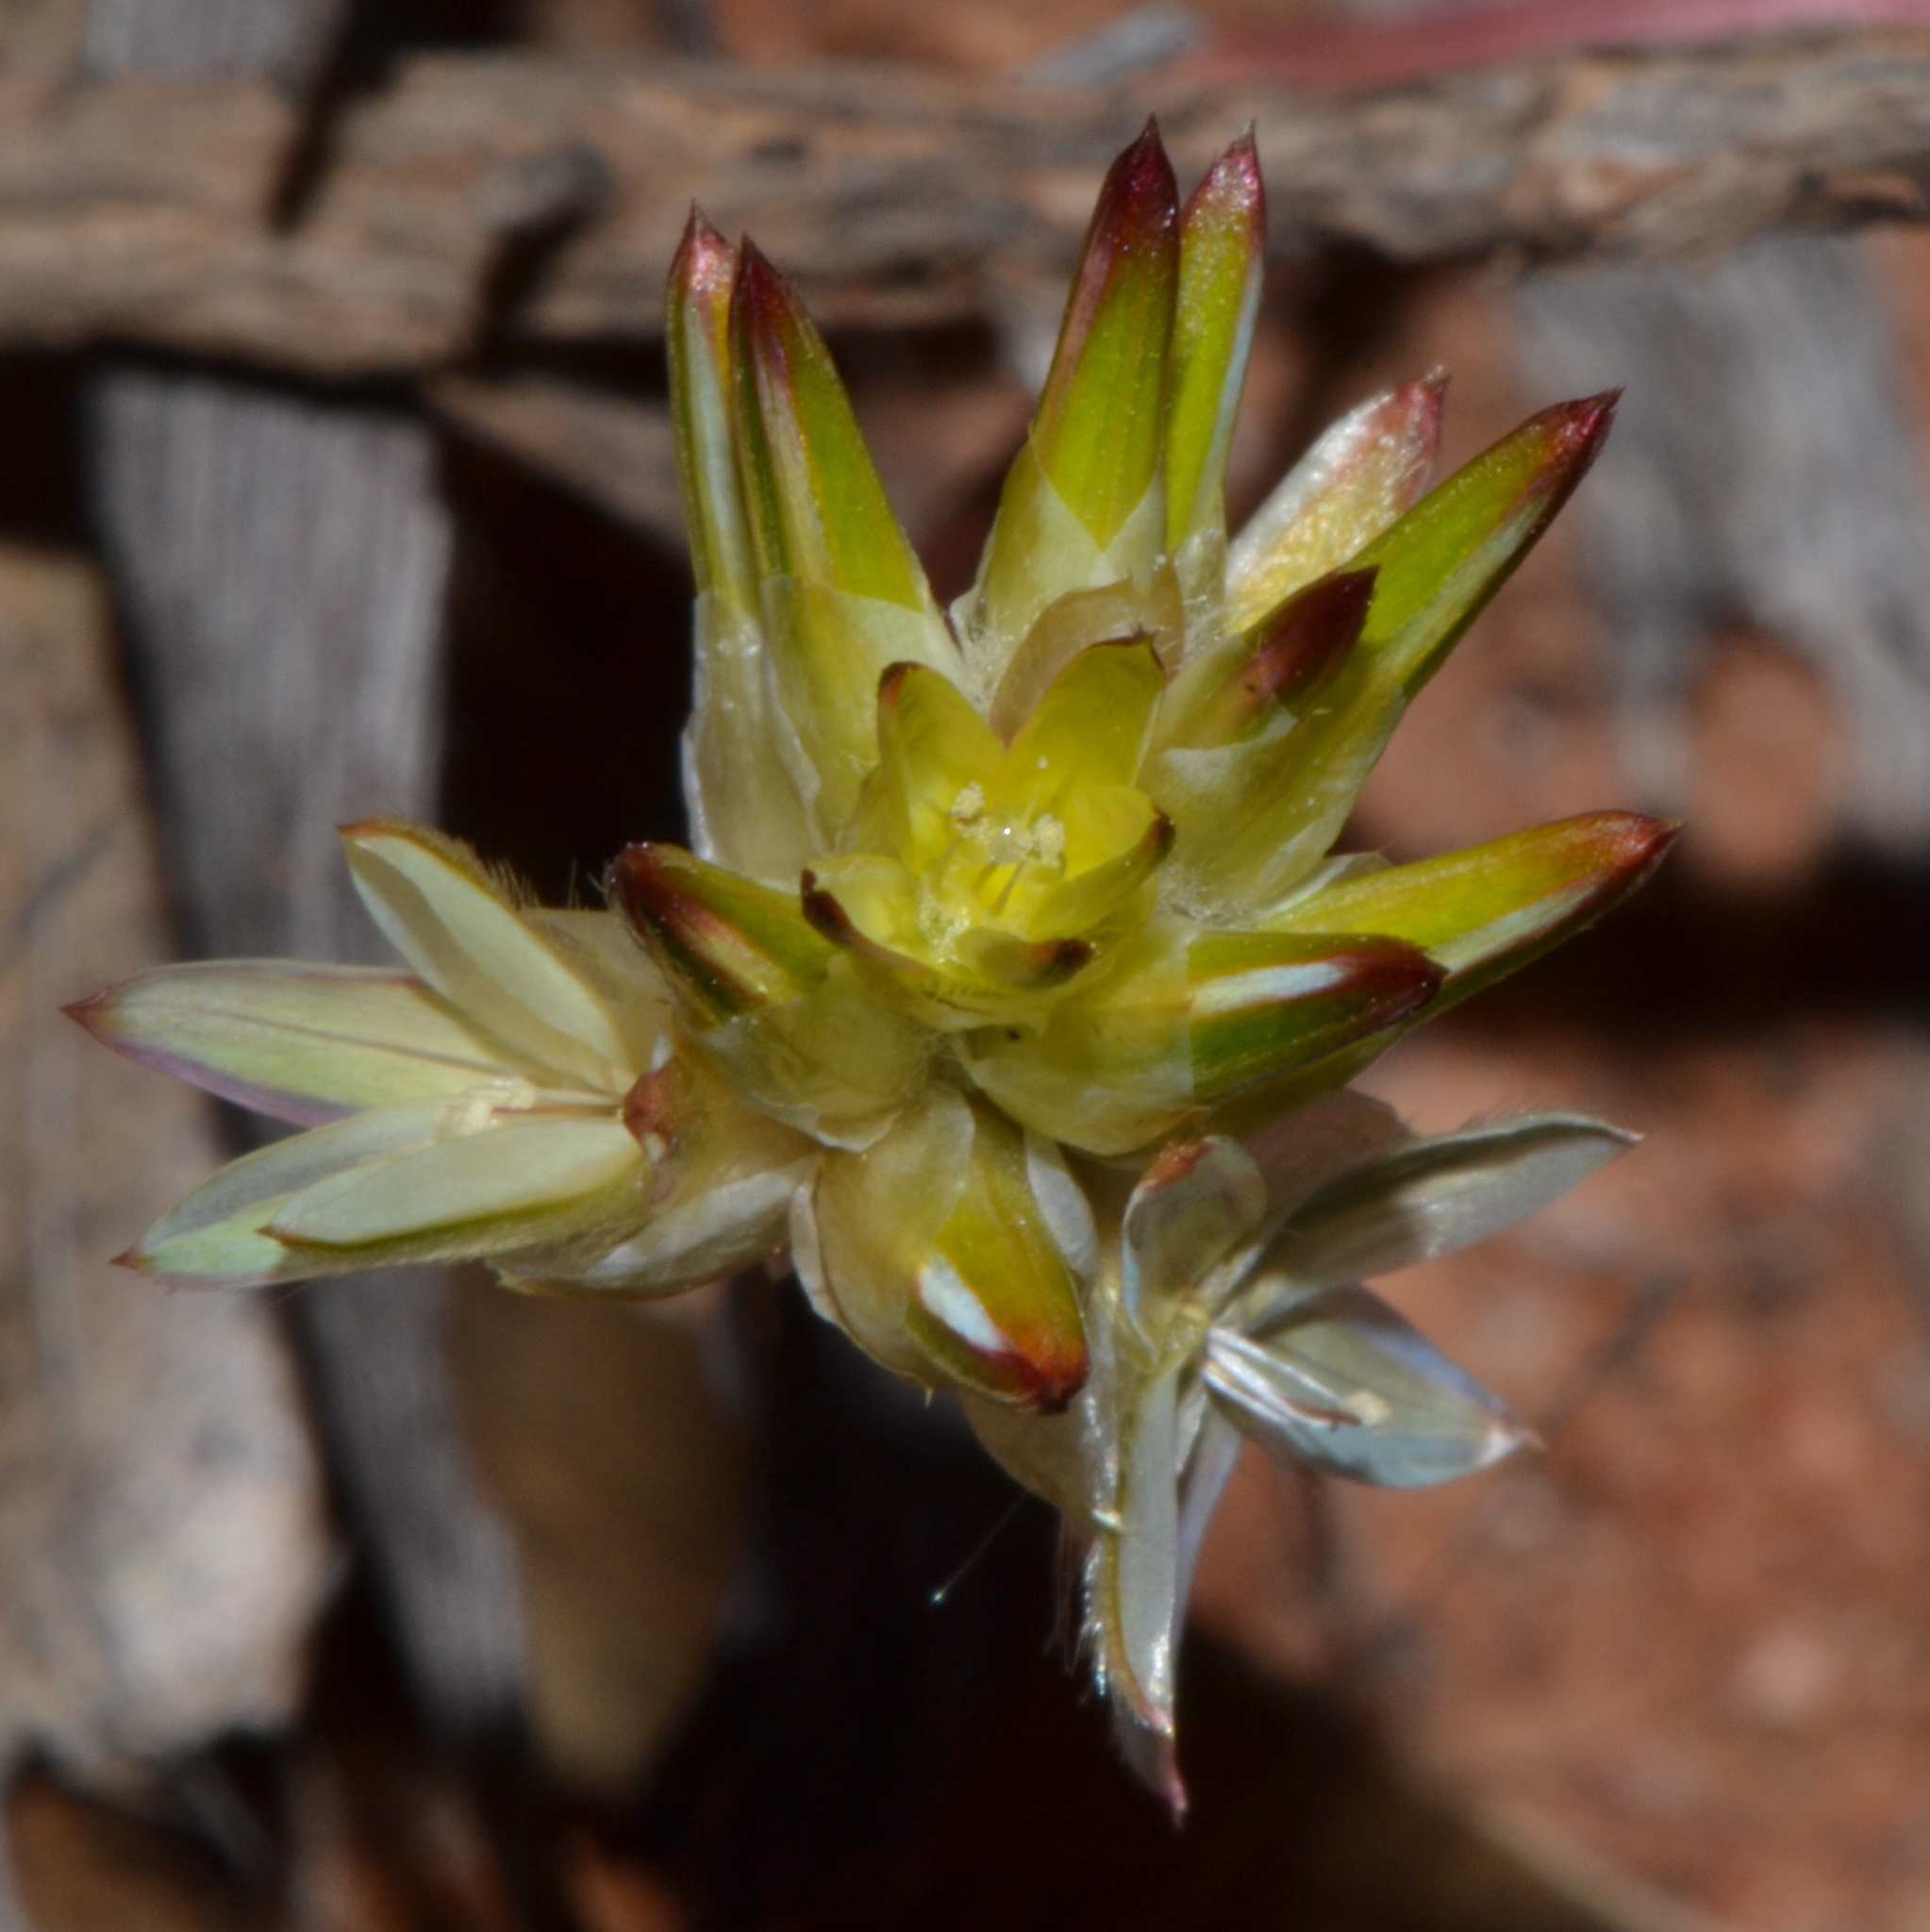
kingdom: Plantae
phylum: Tracheophyta
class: Magnoliopsida
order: Caryophyllales
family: Amaranthaceae
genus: Ptilotus
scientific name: Ptilotus eremita
